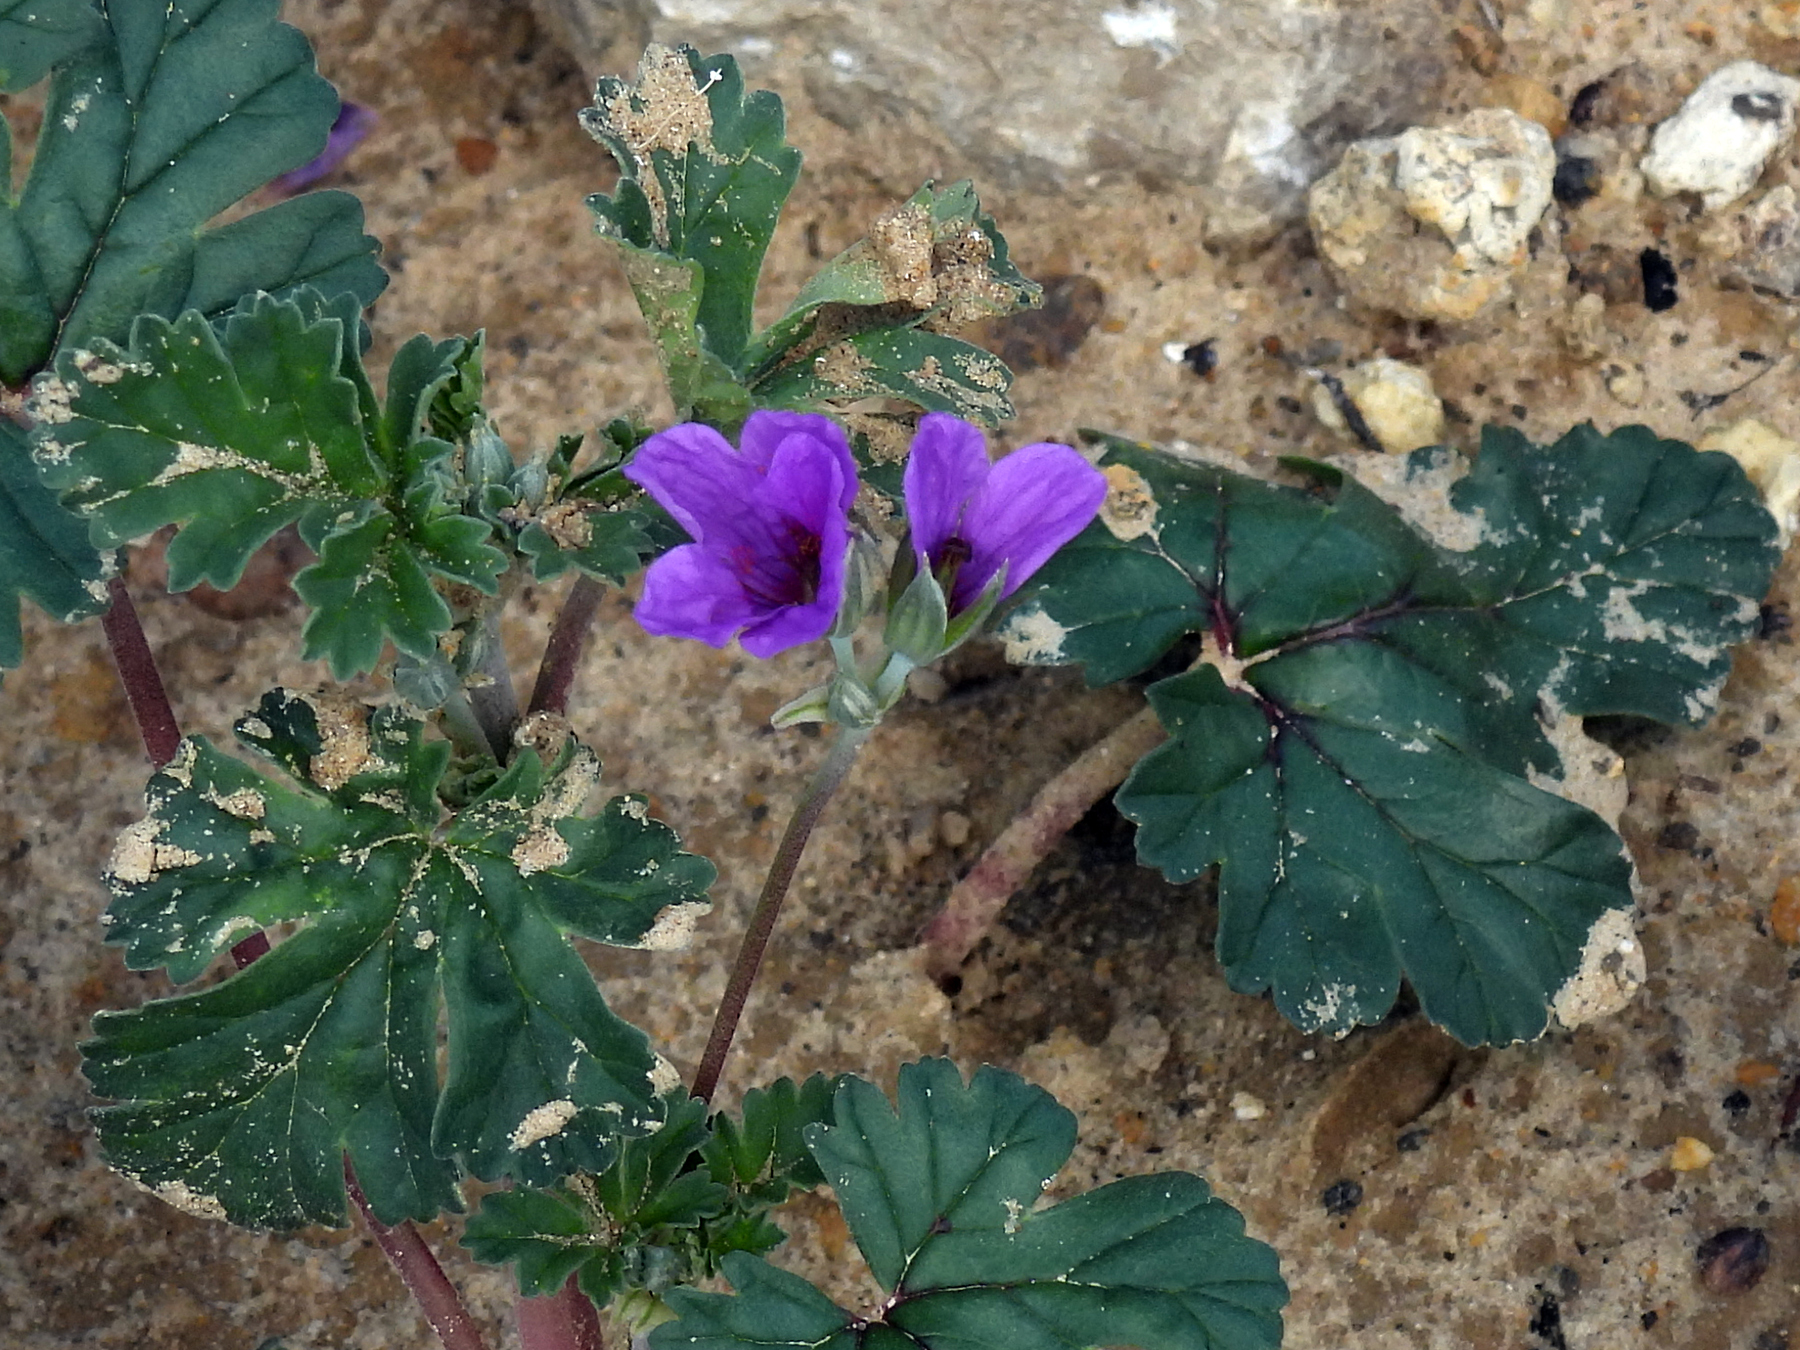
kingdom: Plantae
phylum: Tracheophyta
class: Magnoliopsida
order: Geraniales
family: Geraniaceae
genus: Erodium
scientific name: Erodium texanum
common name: Texas stork's-bill
